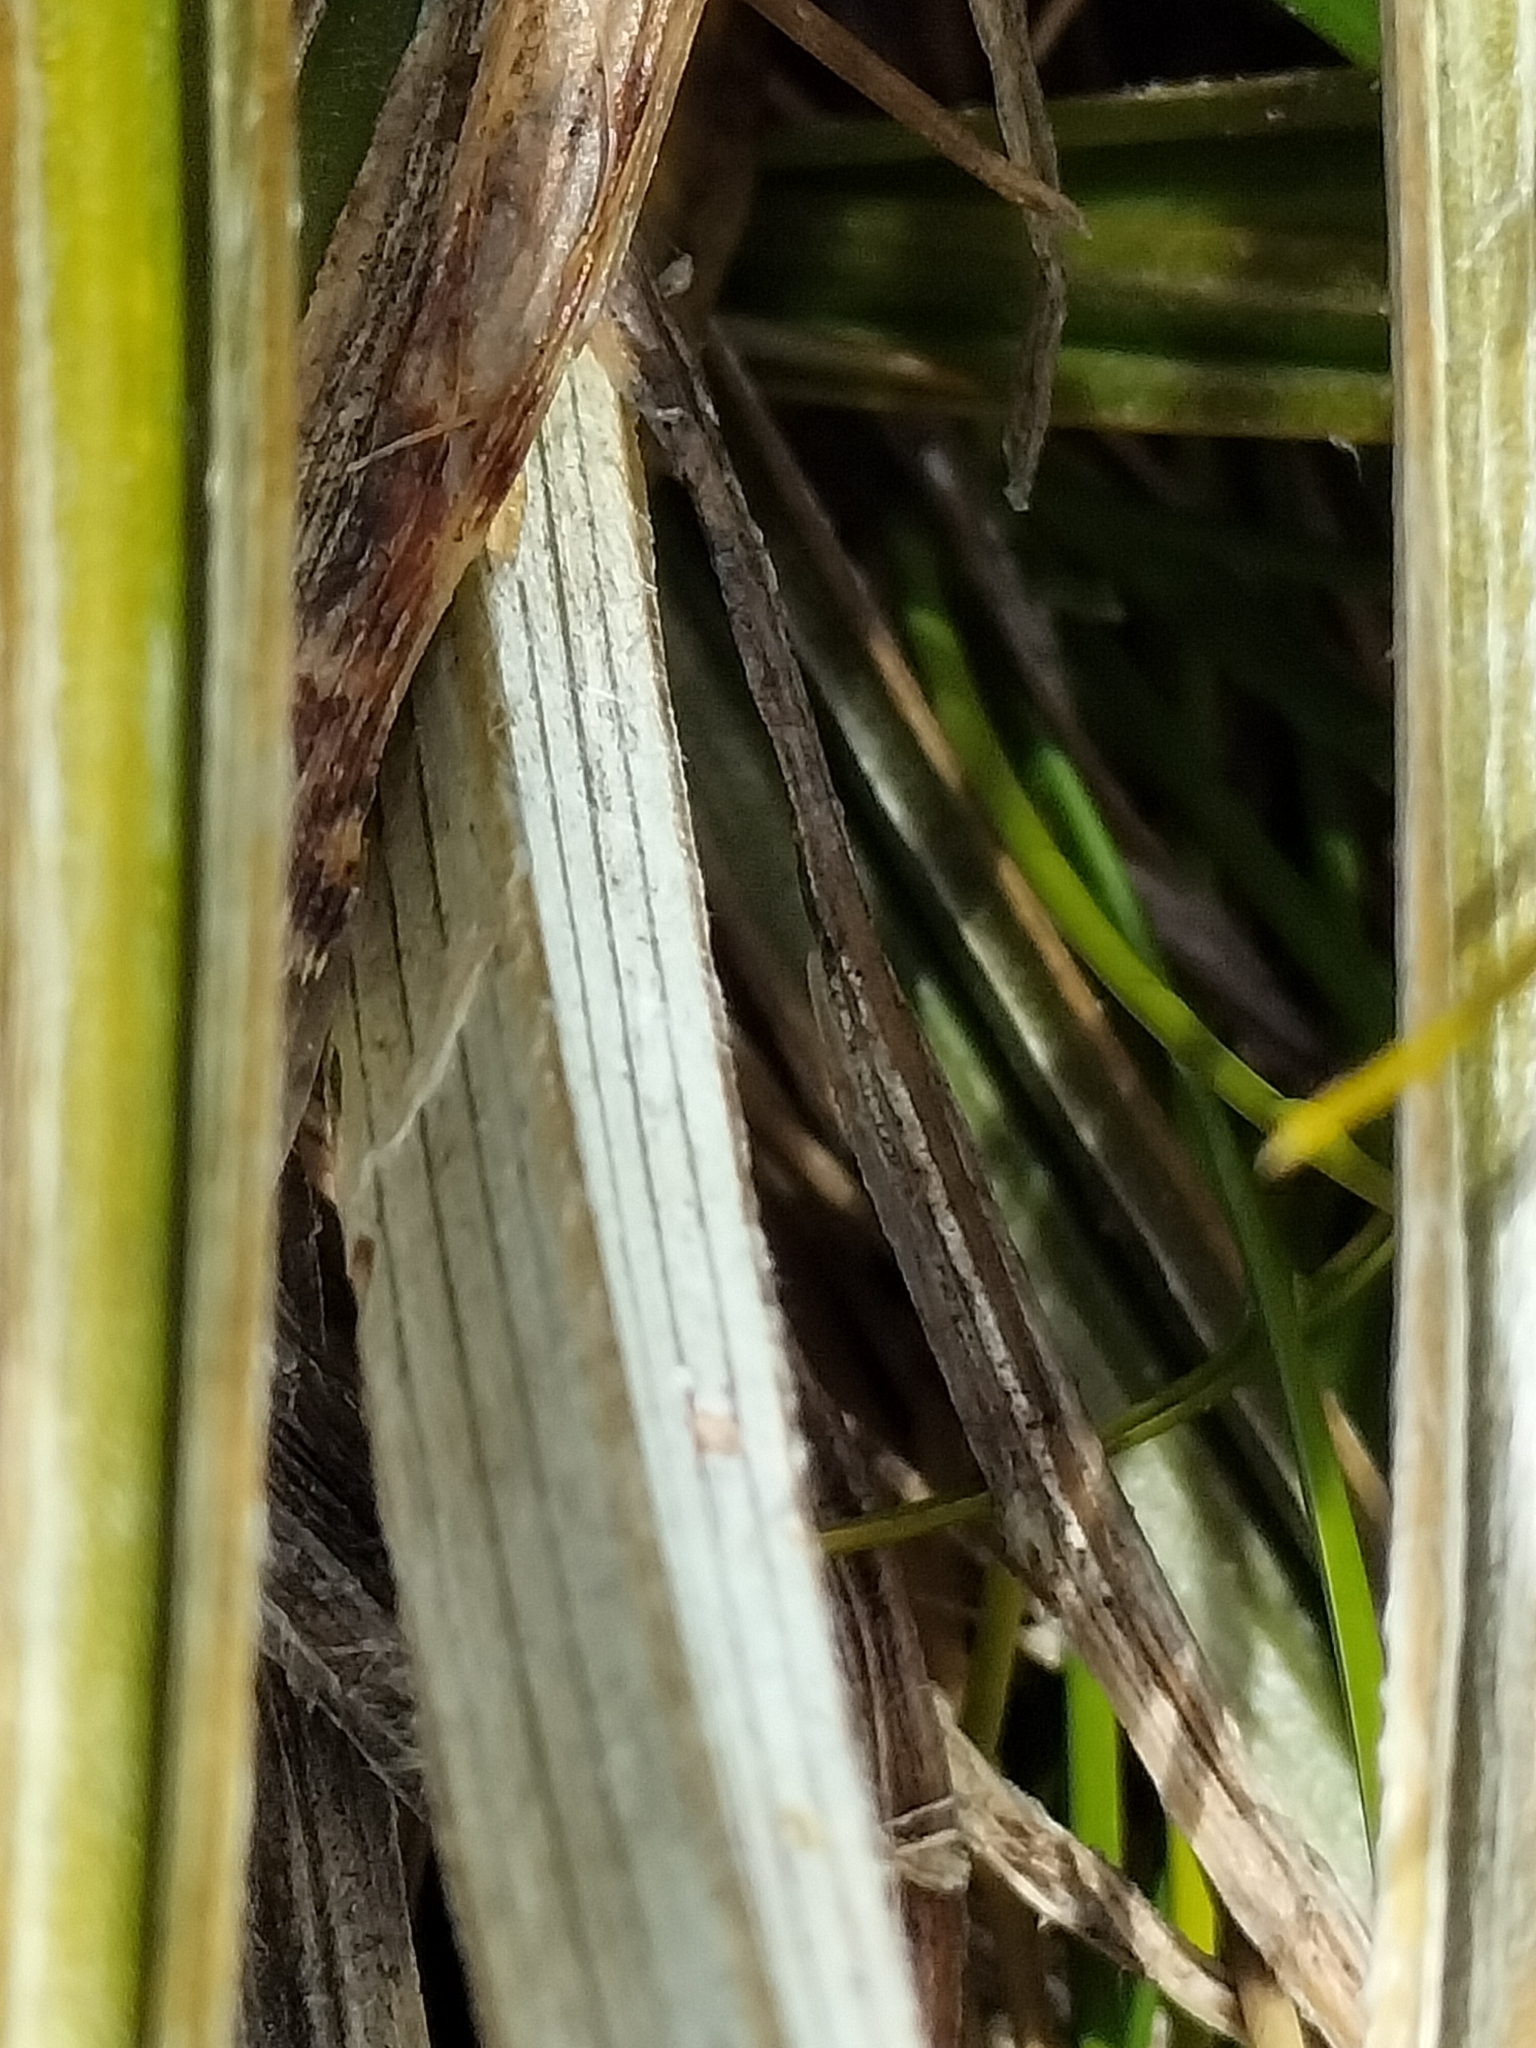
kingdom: Plantae
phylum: Tracheophyta
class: Liliopsida
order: Asparagales
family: Asteliaceae
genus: Astelia
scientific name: Astelia graminea
